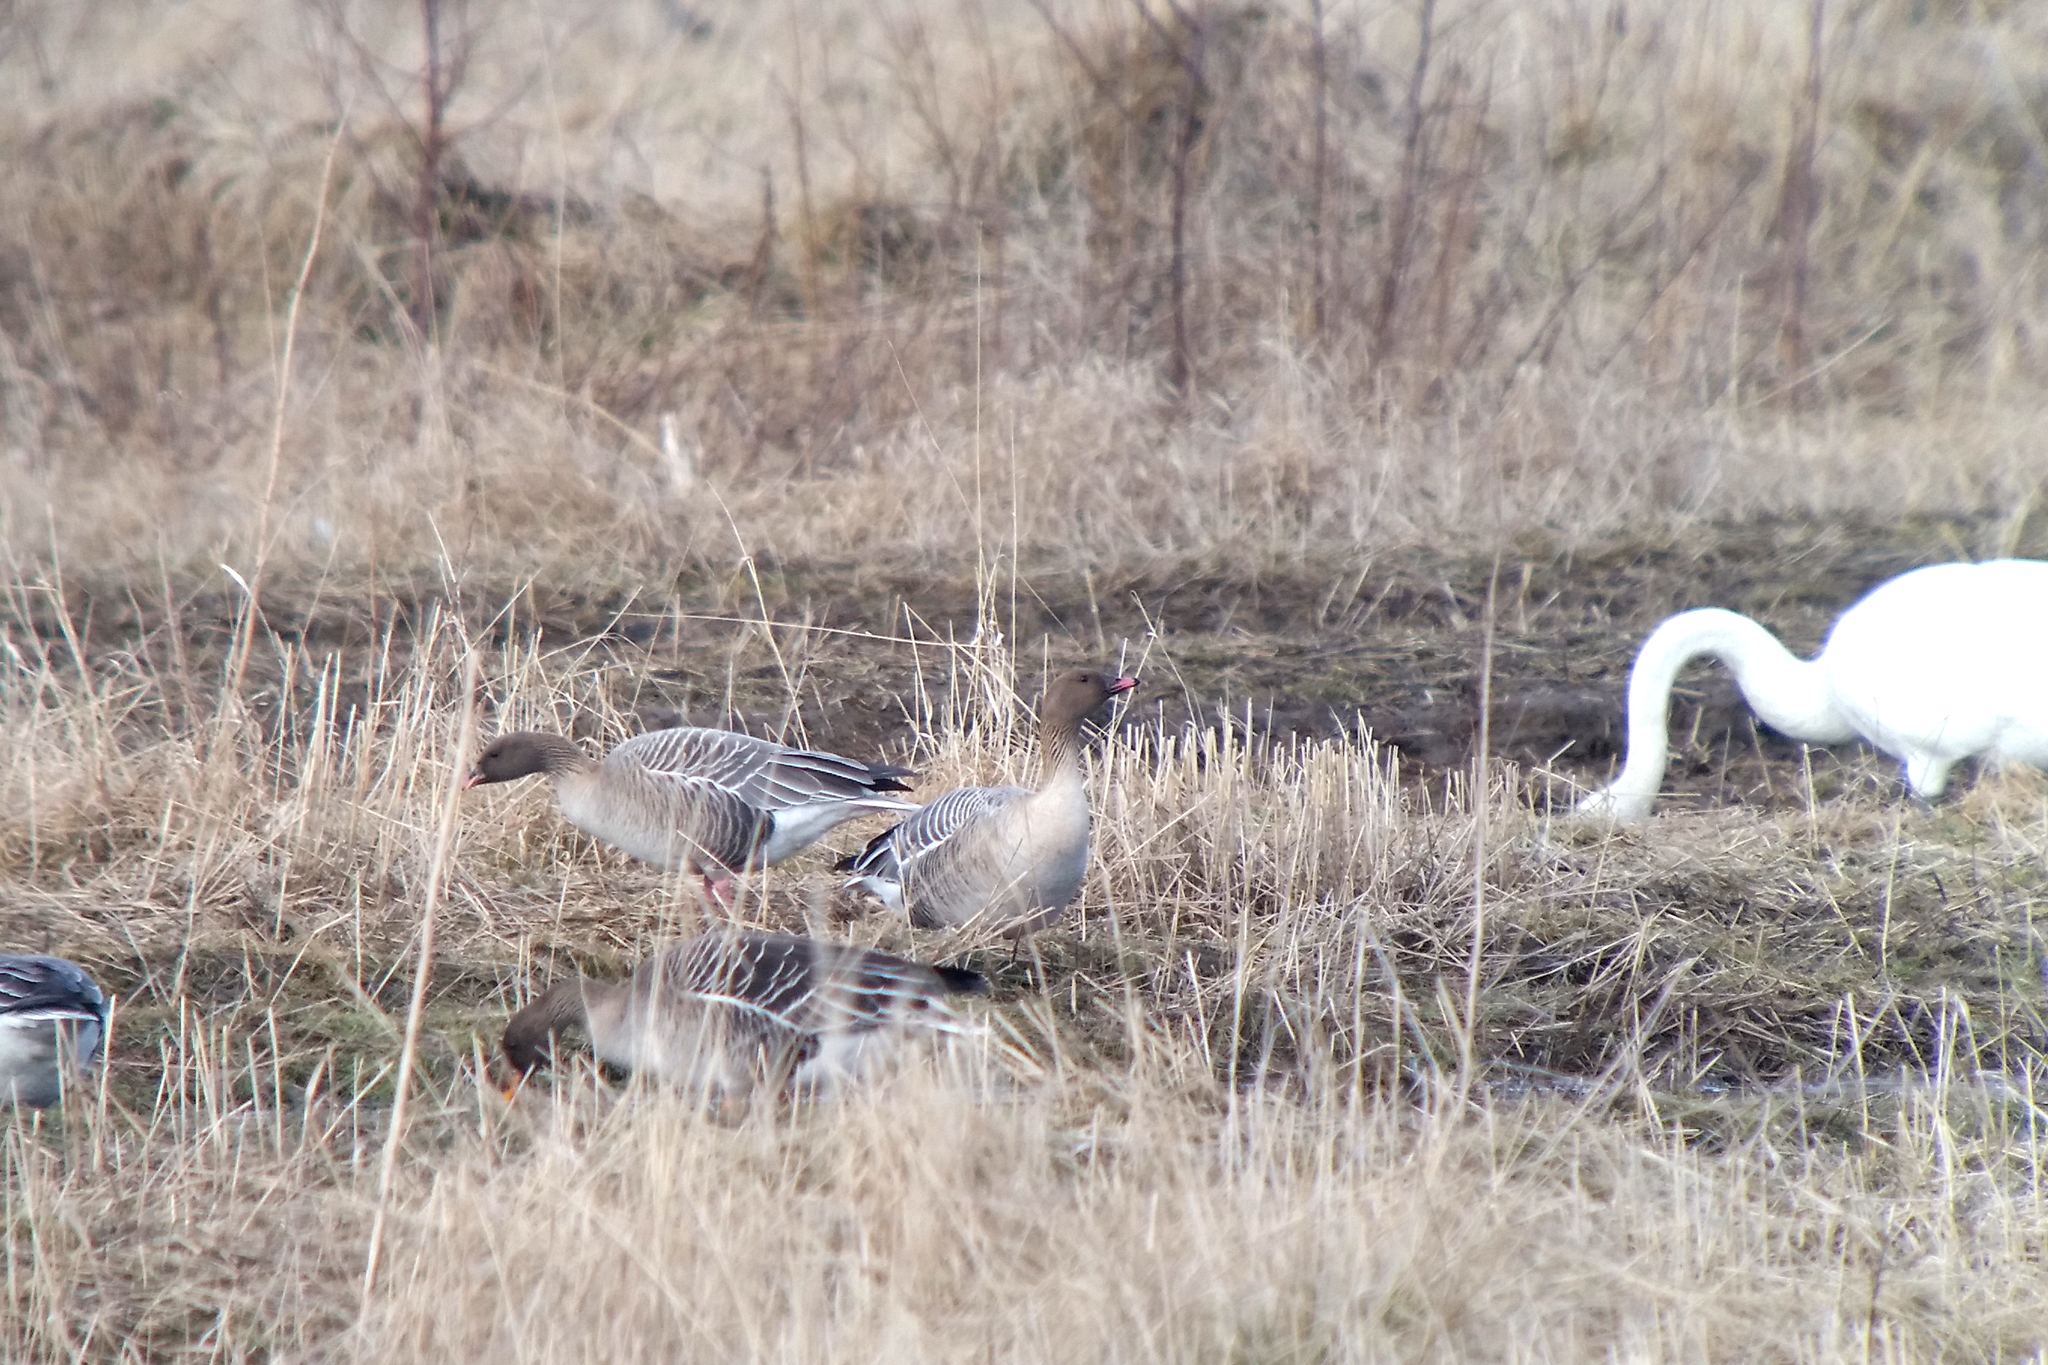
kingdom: Animalia
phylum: Chordata
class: Aves
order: Anseriformes
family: Anatidae
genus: Anser
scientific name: Anser brachyrhynchus
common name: Pink-footed goose
